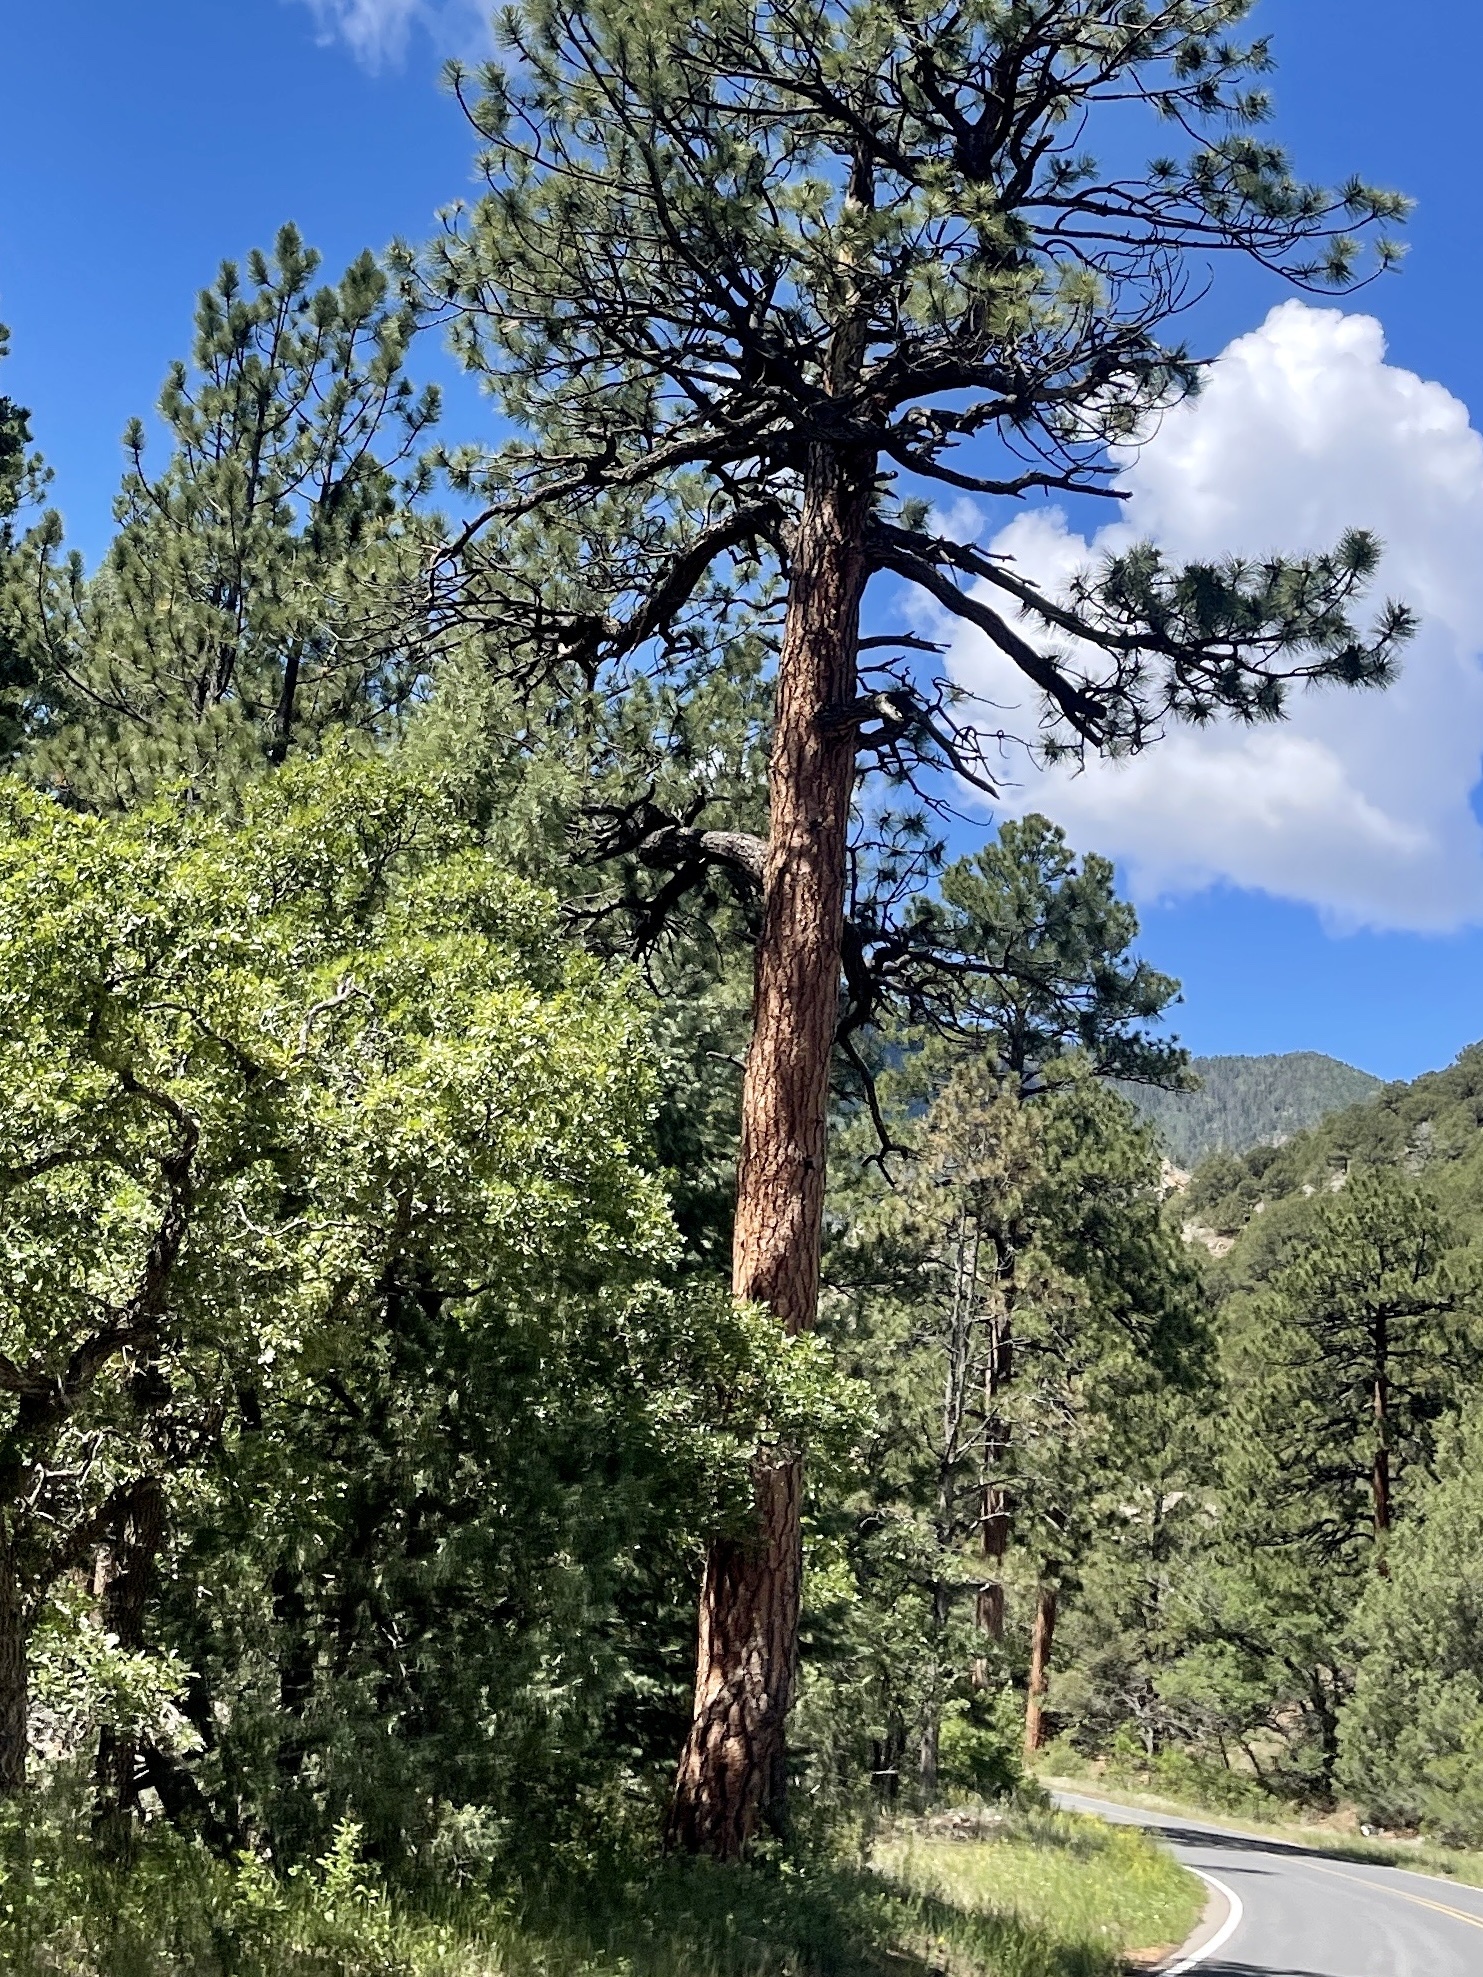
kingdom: Plantae
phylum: Tracheophyta
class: Pinopsida
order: Pinales
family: Pinaceae
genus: Pinus
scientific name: Pinus ponderosa
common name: Western yellow-pine
